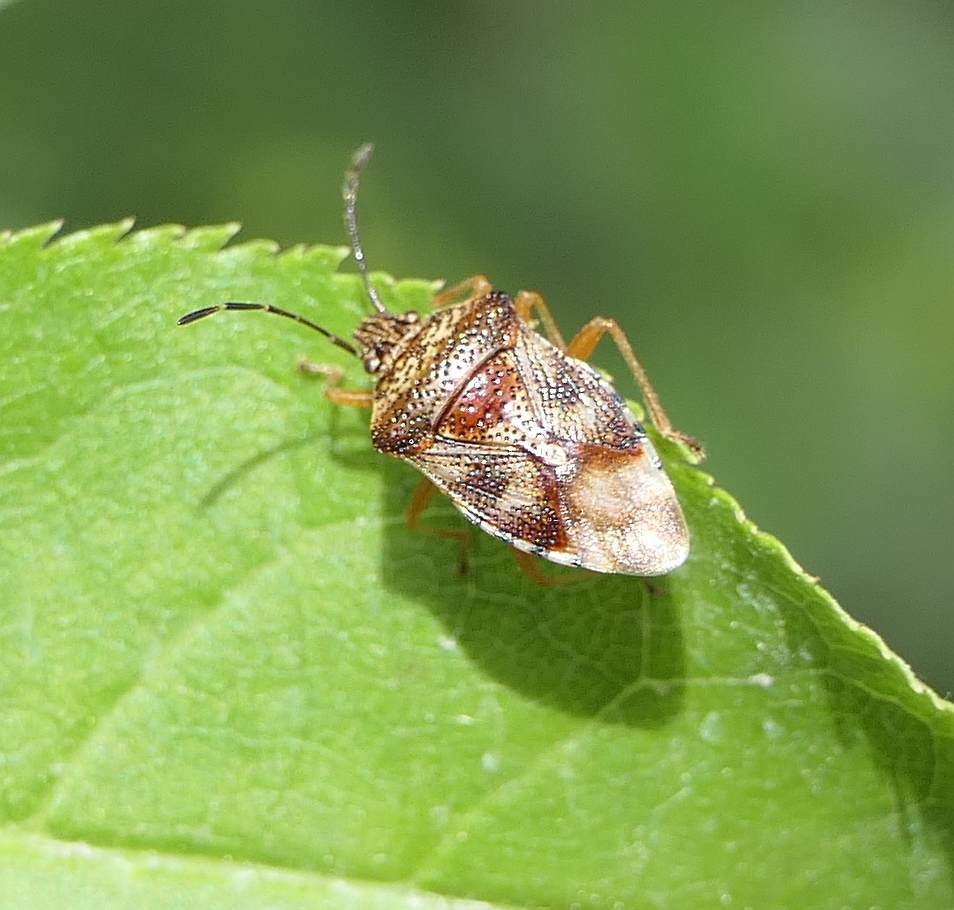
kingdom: Animalia
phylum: Arthropoda
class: Insecta
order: Hemiptera
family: Acanthosomatidae
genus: Elasmucha
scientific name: Elasmucha lateralis
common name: Shield bug
